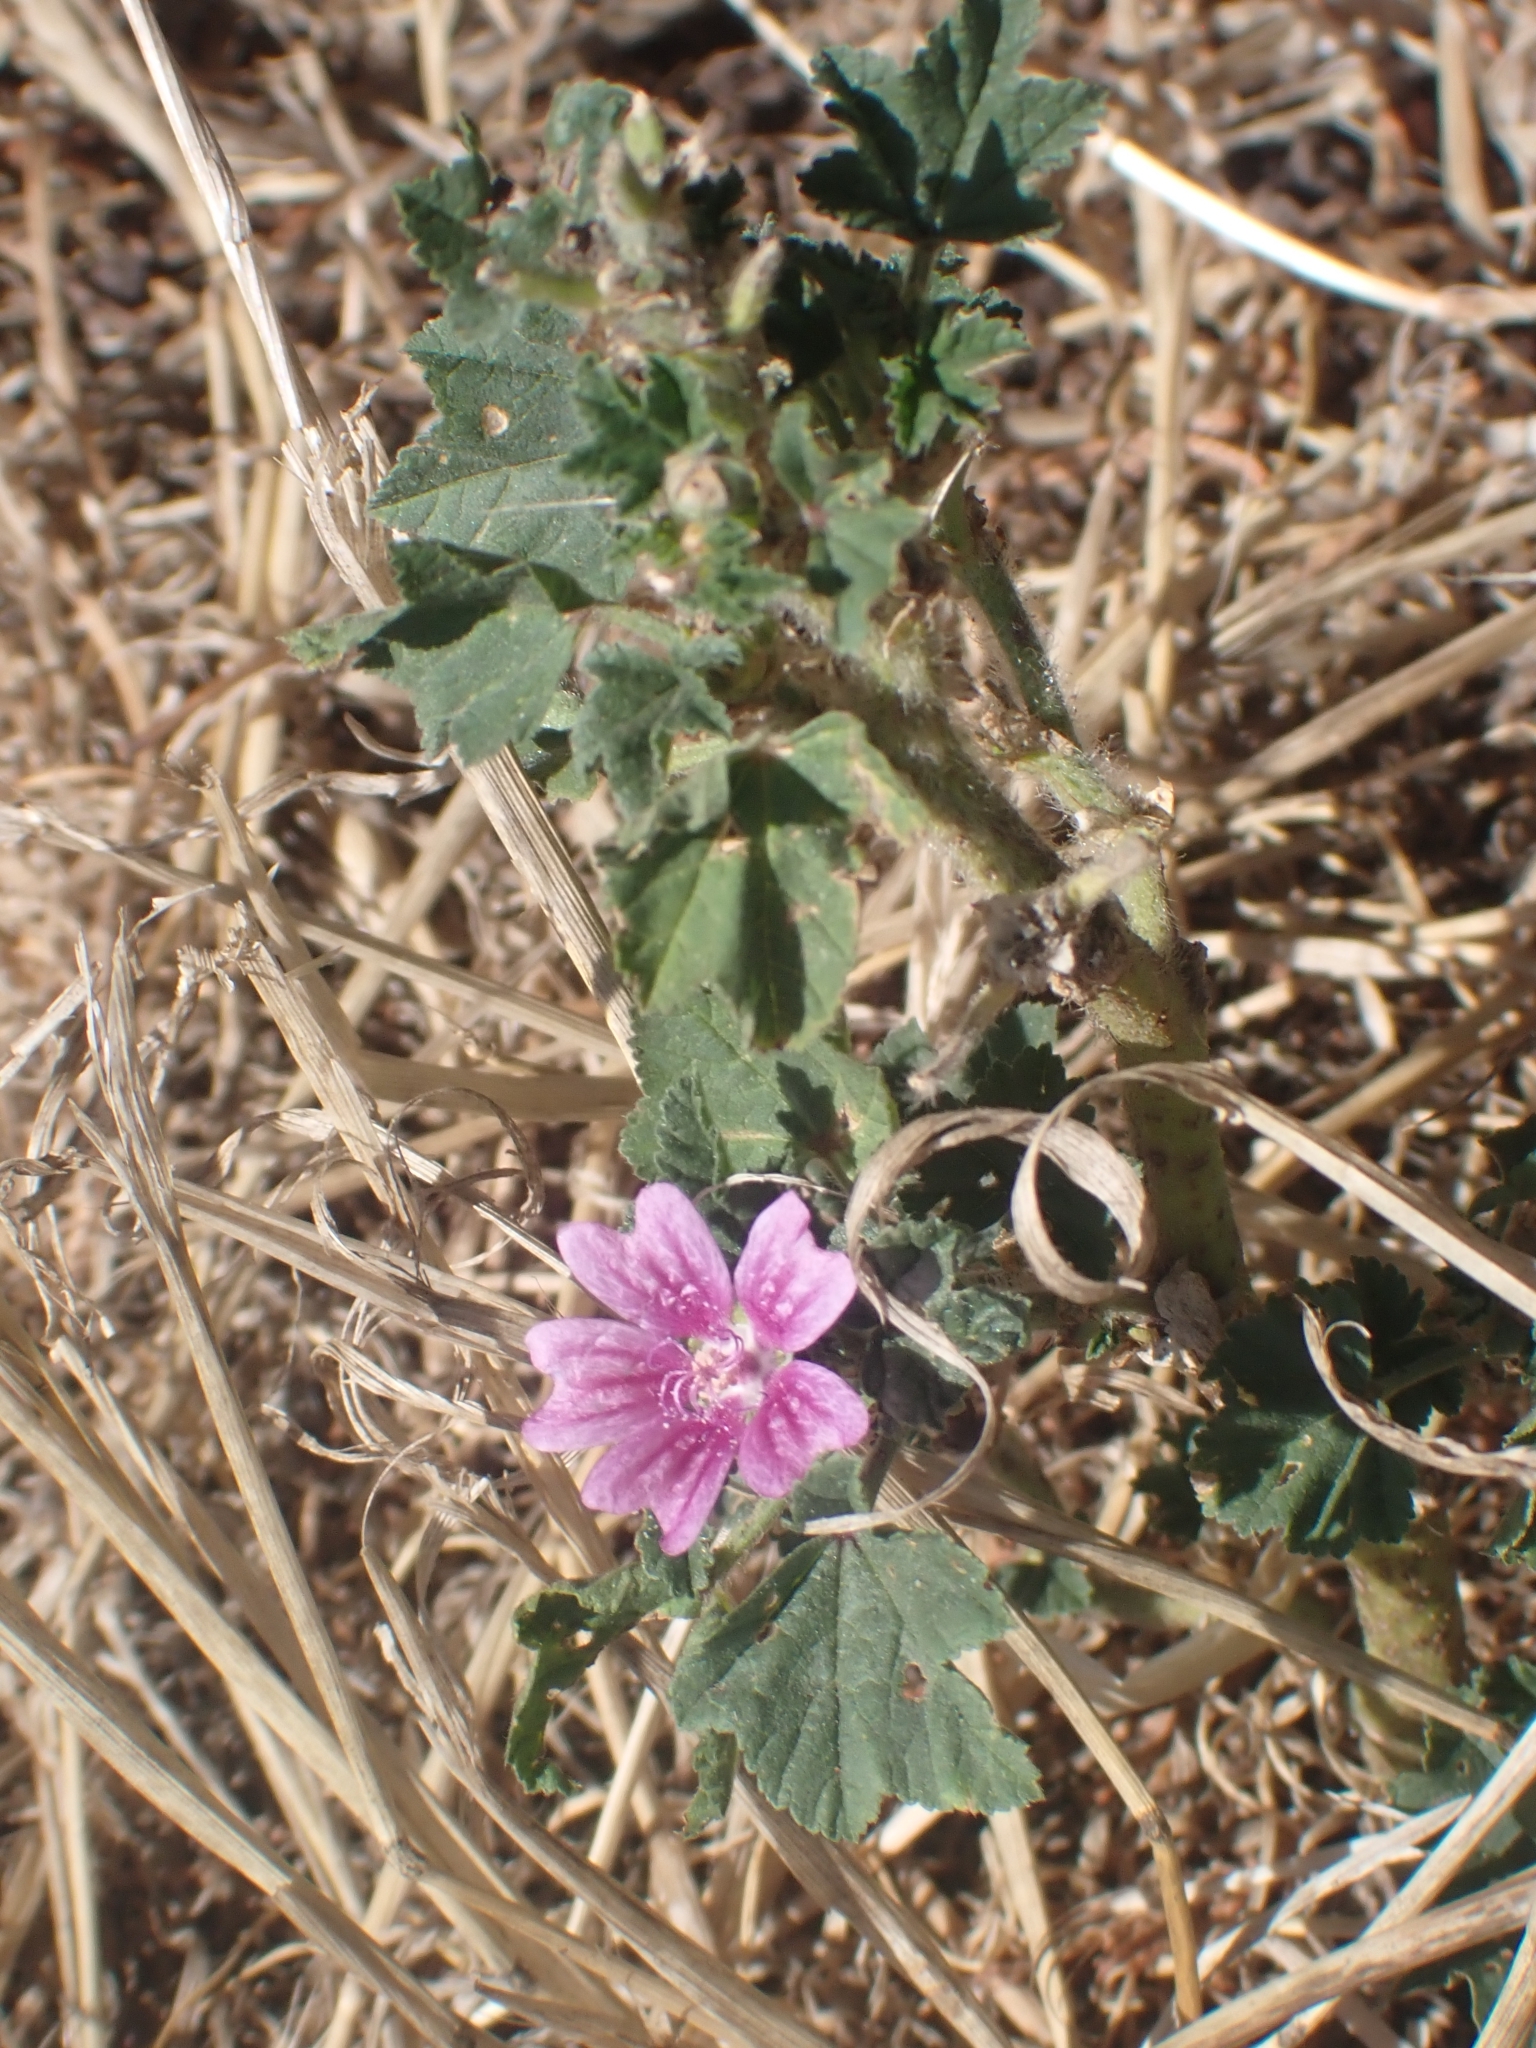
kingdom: Plantae
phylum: Tracheophyta
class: Magnoliopsida
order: Malvales
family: Malvaceae
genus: Malva
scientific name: Malva sylvestris
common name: Common mallow
